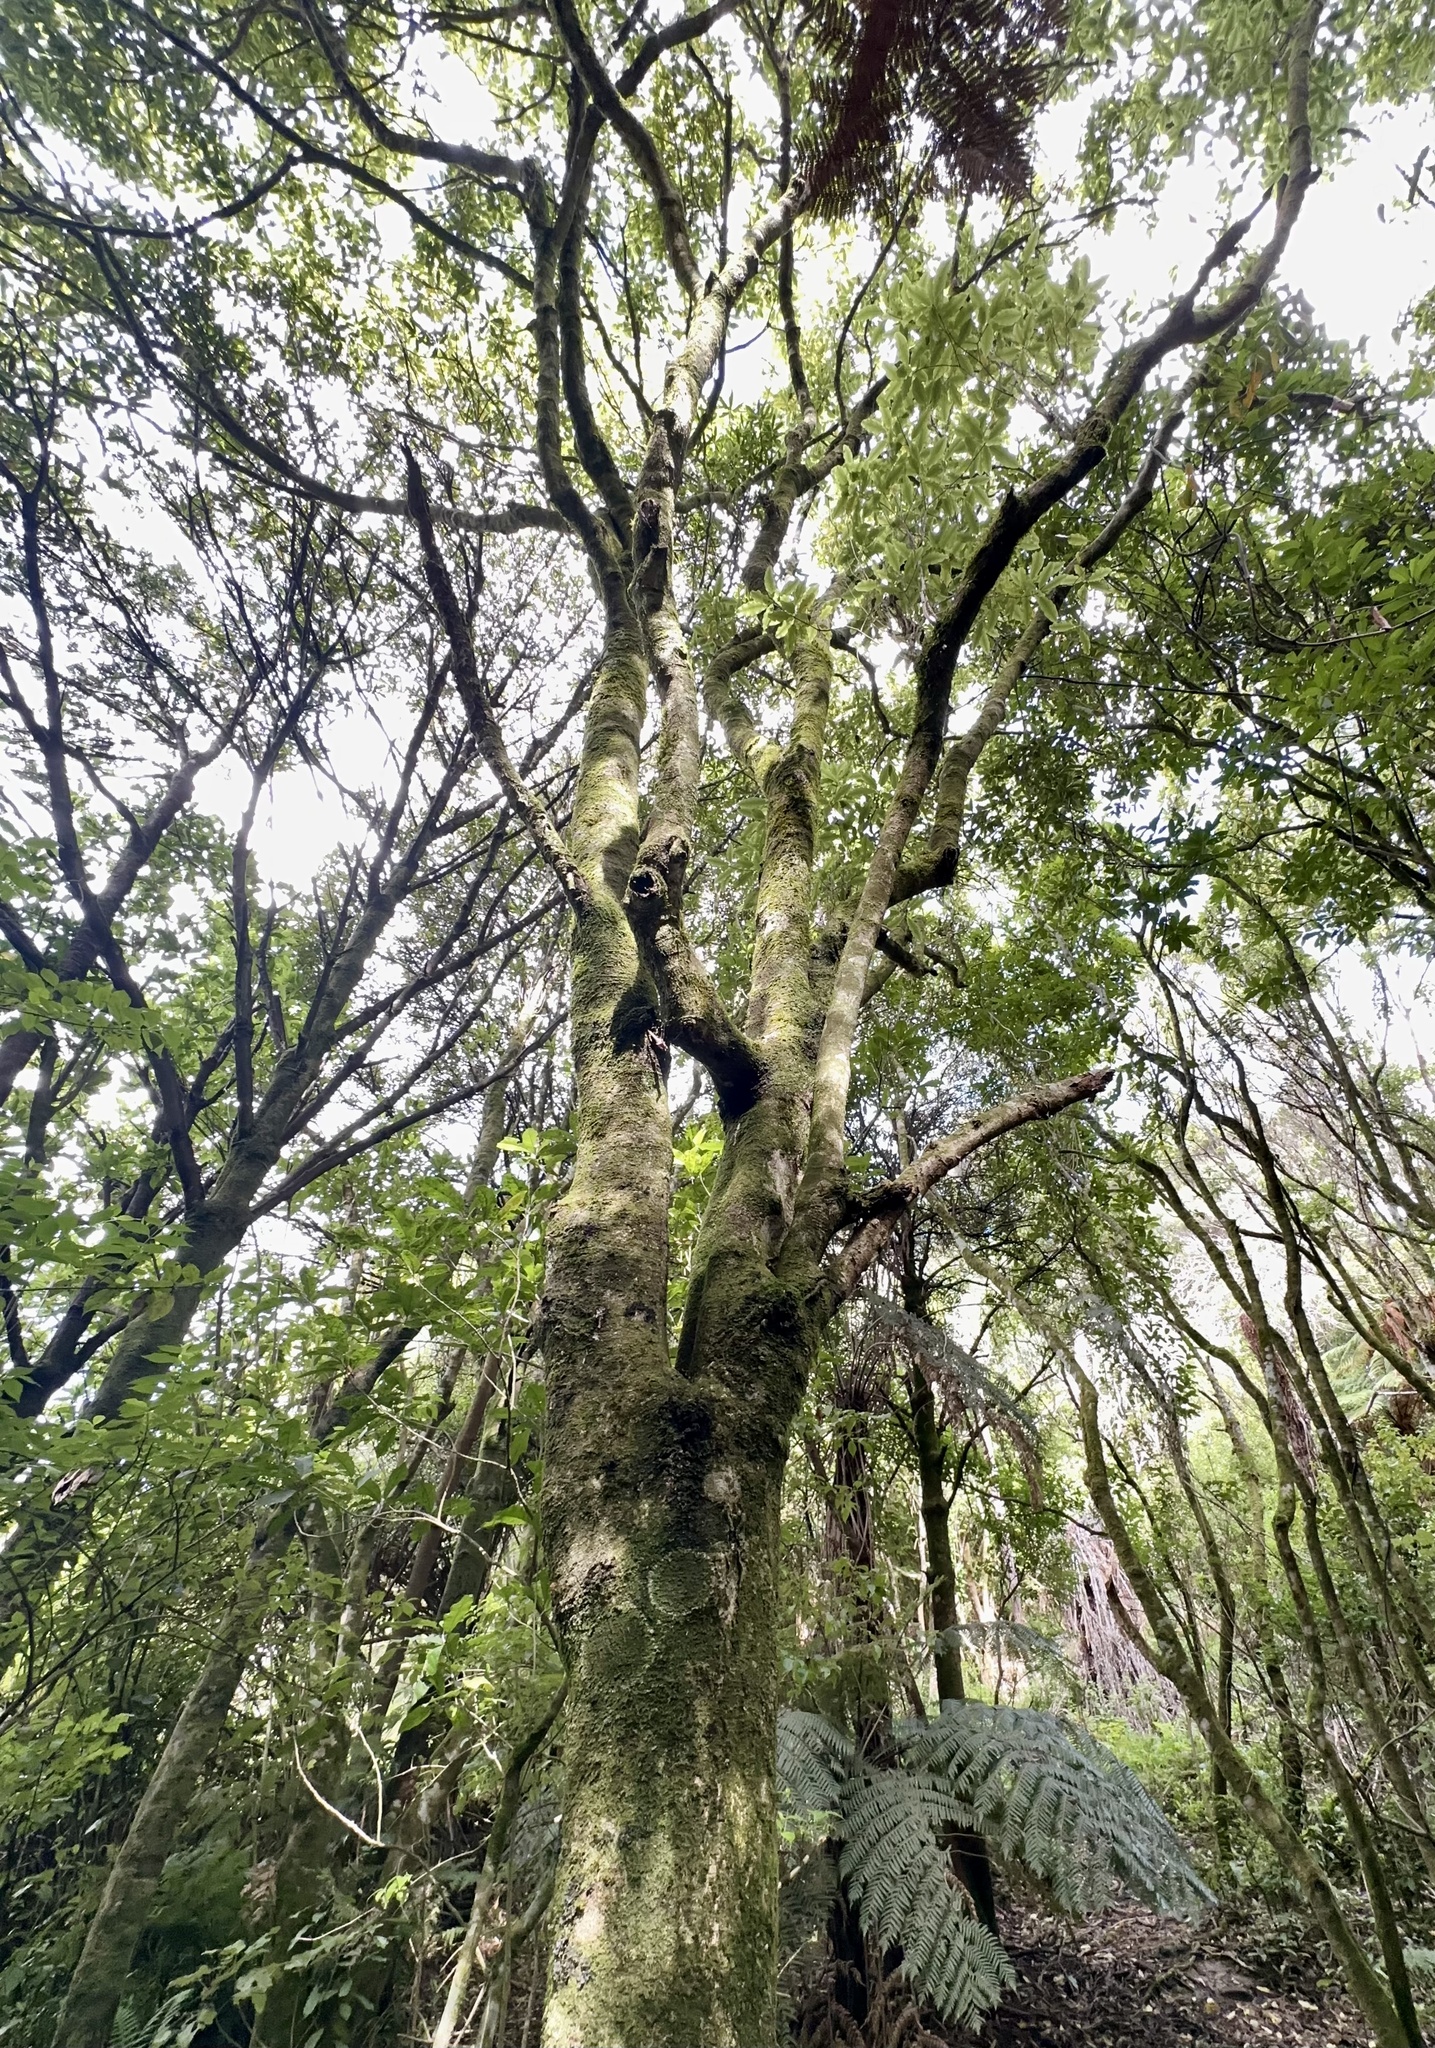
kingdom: Plantae
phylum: Tracheophyta
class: Magnoliopsida
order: Apiales
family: Pittosporaceae
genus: Pittosporum
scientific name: Pittosporum eugenioides
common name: Lemonwood
